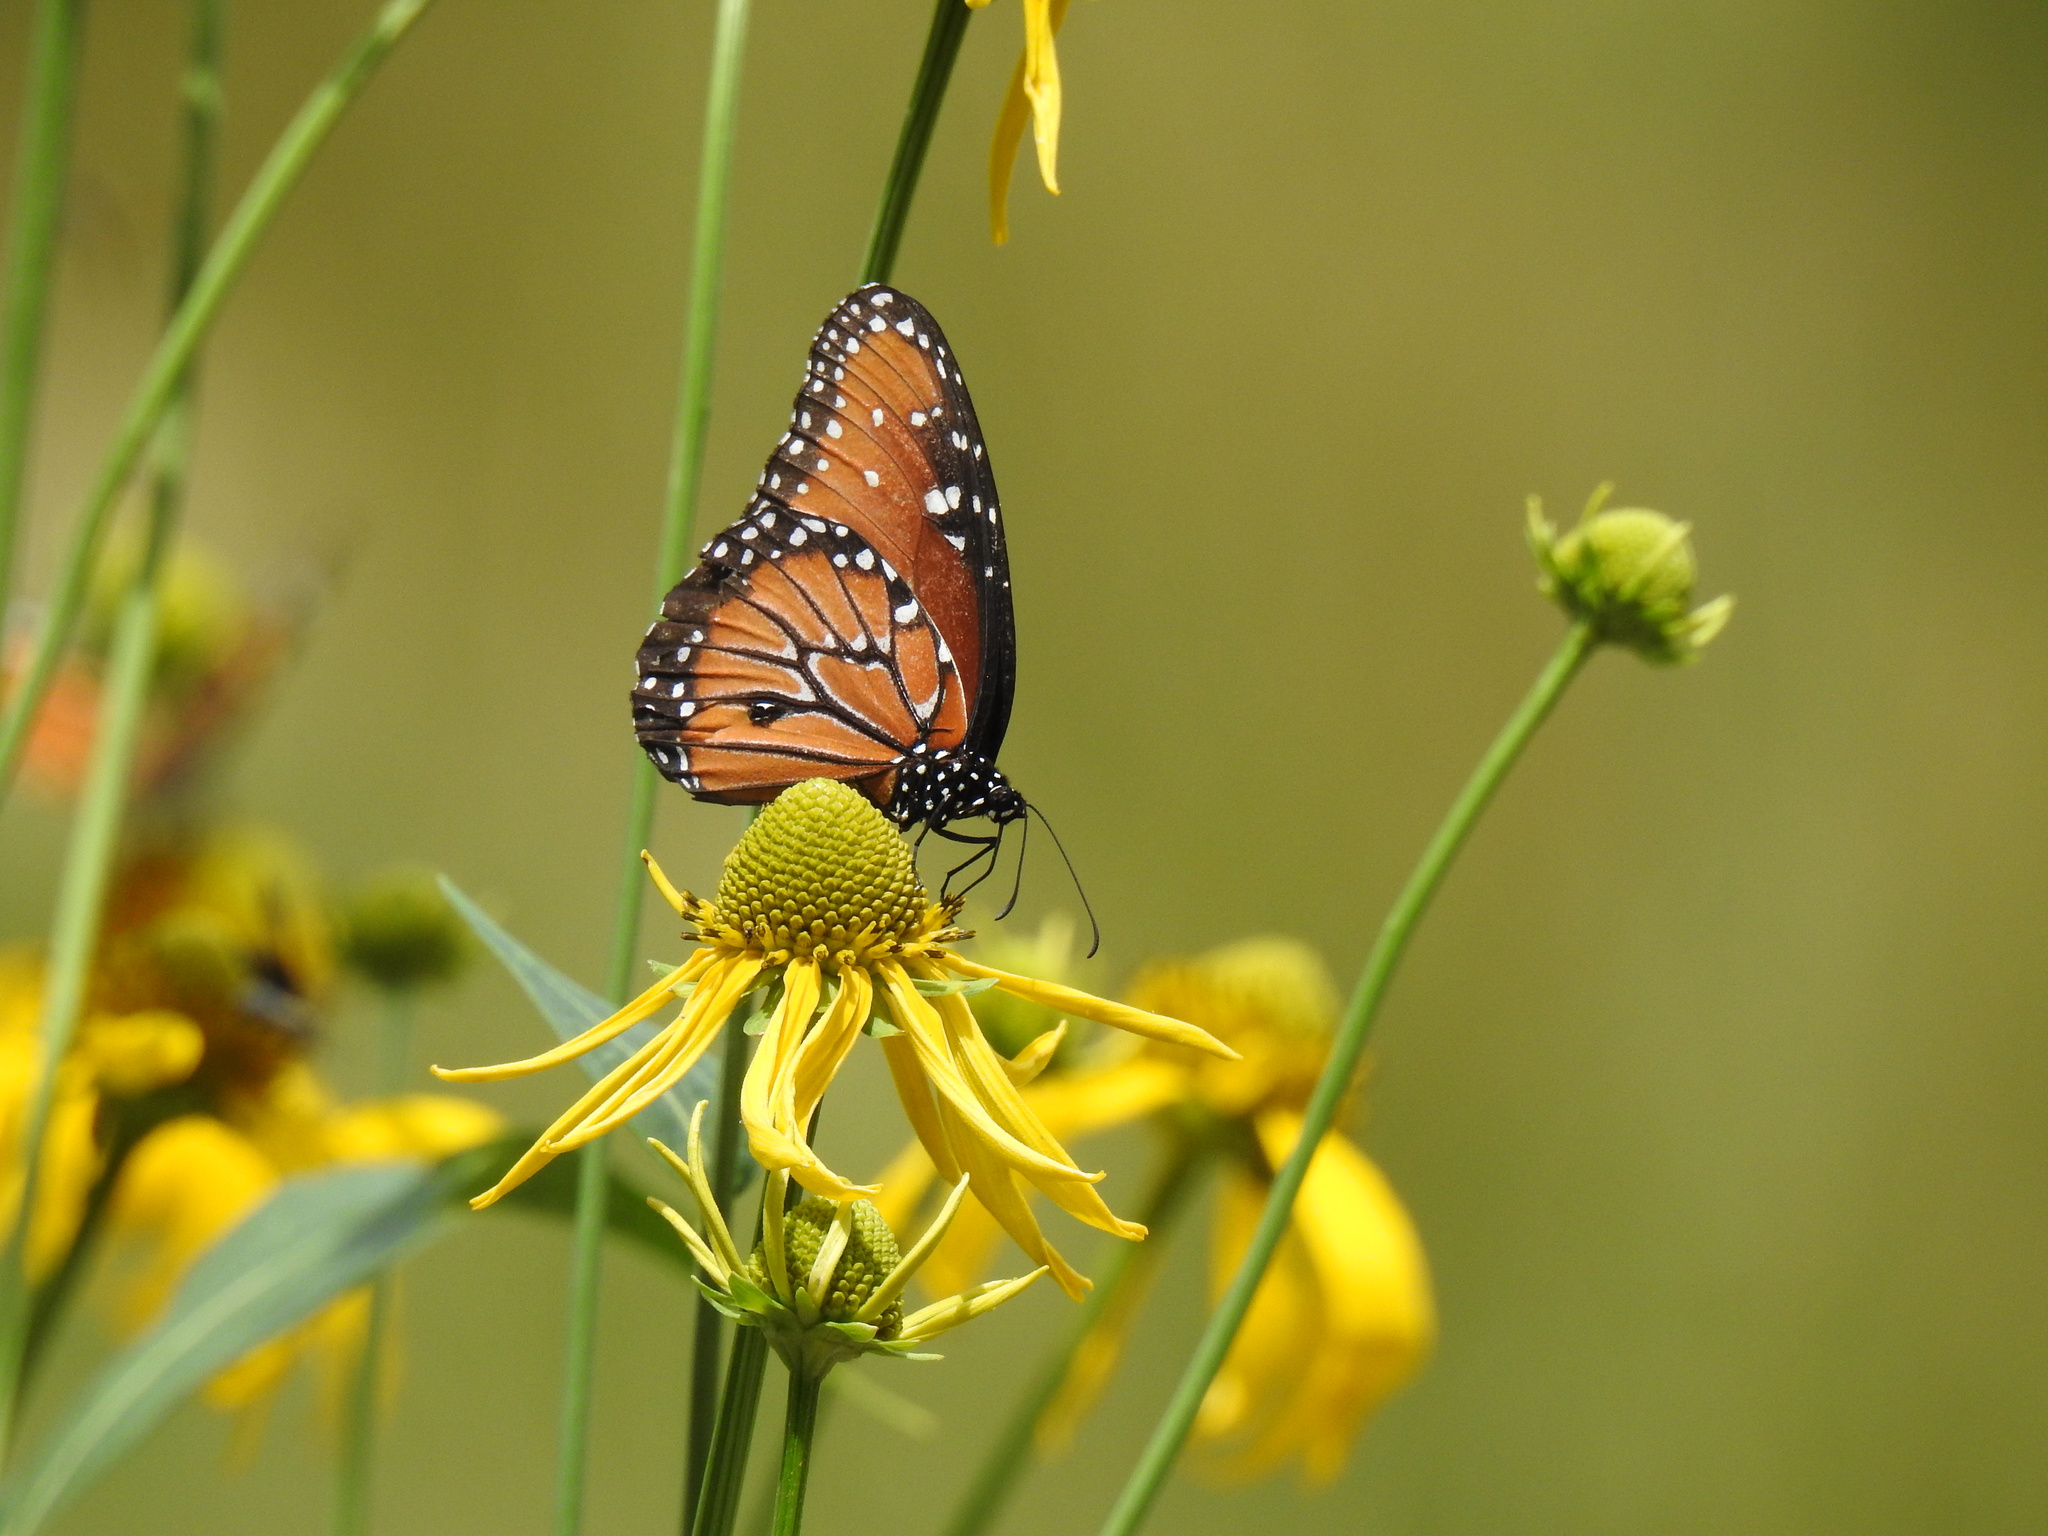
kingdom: Animalia
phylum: Arthropoda
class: Insecta
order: Lepidoptera
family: Nymphalidae
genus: Danaus
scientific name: Danaus gilippus
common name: Queen
